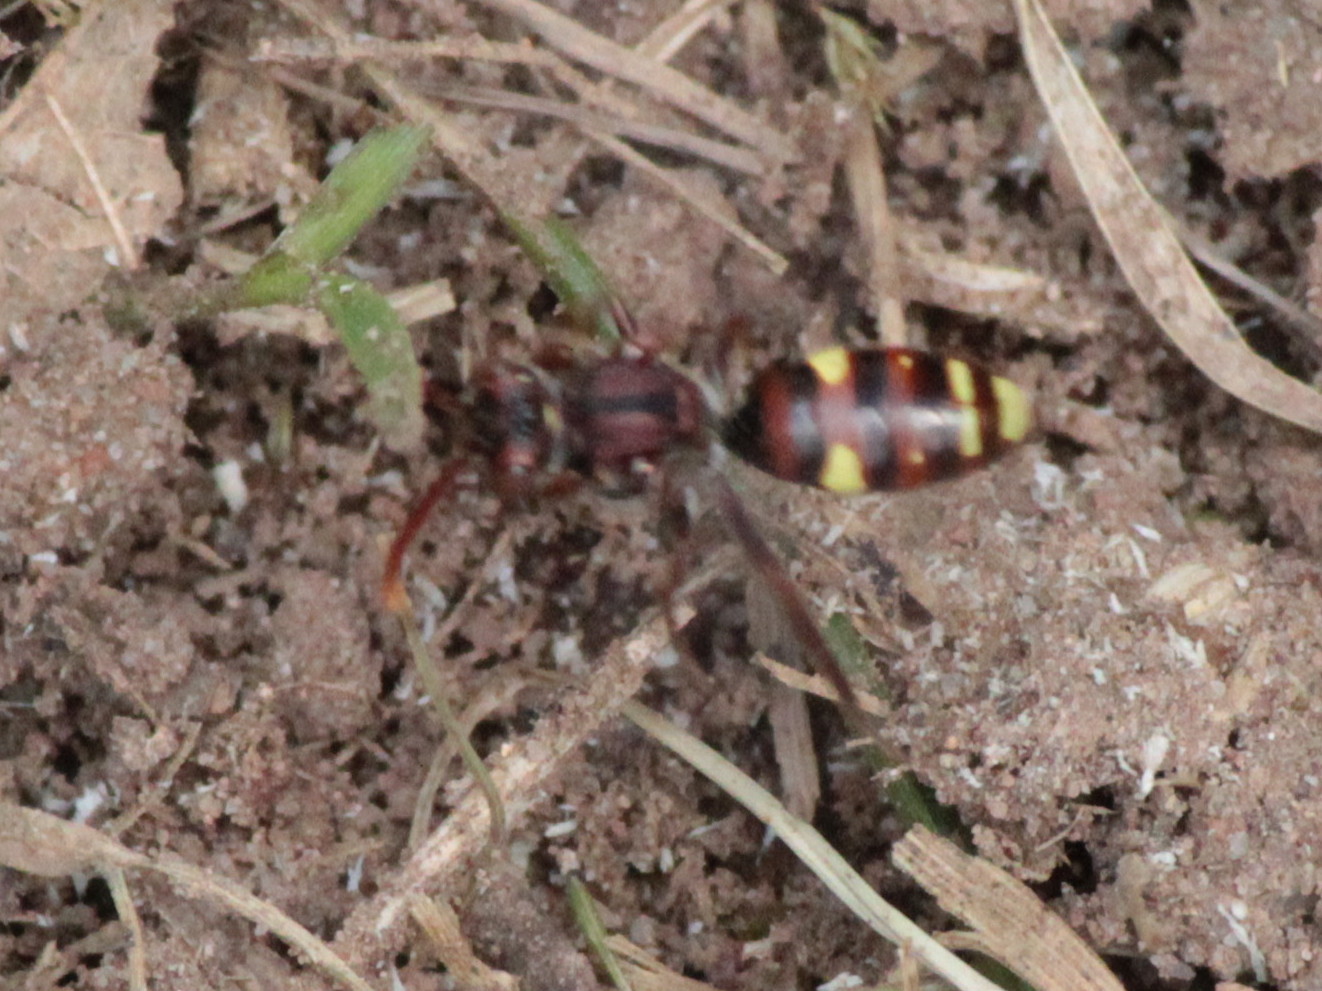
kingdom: Animalia
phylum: Arthropoda
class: Insecta
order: Hymenoptera
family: Apidae
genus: Nomada
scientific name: Nomada gracilis
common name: Slender cuckoo nomad bee
